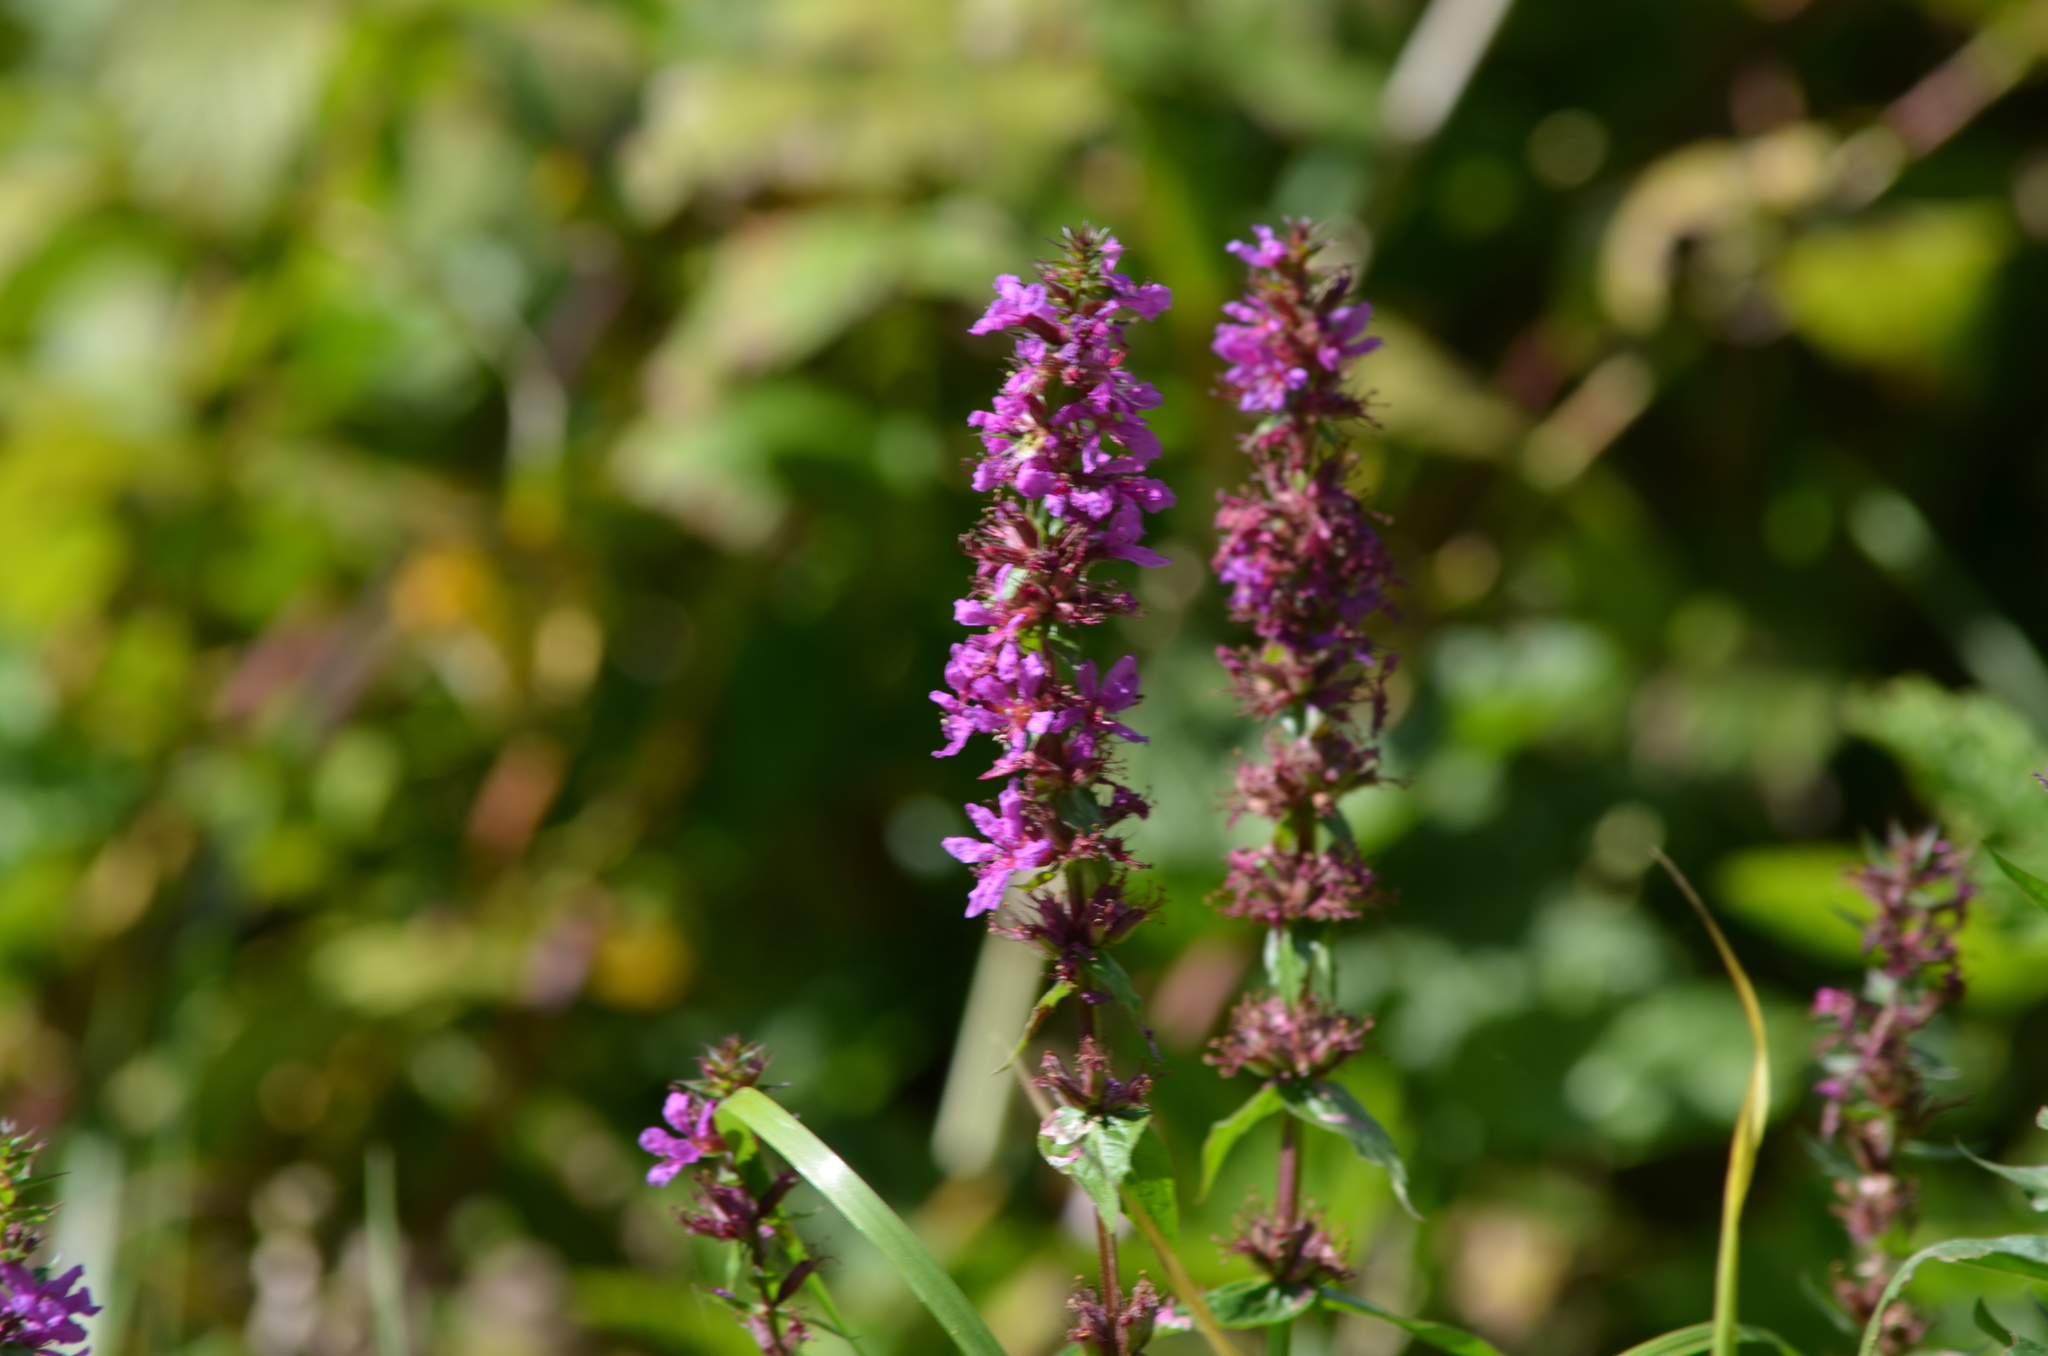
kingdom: Plantae
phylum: Tracheophyta
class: Magnoliopsida
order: Myrtales
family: Lythraceae
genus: Lythrum
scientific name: Lythrum salicaria
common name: Purple loosestrife
